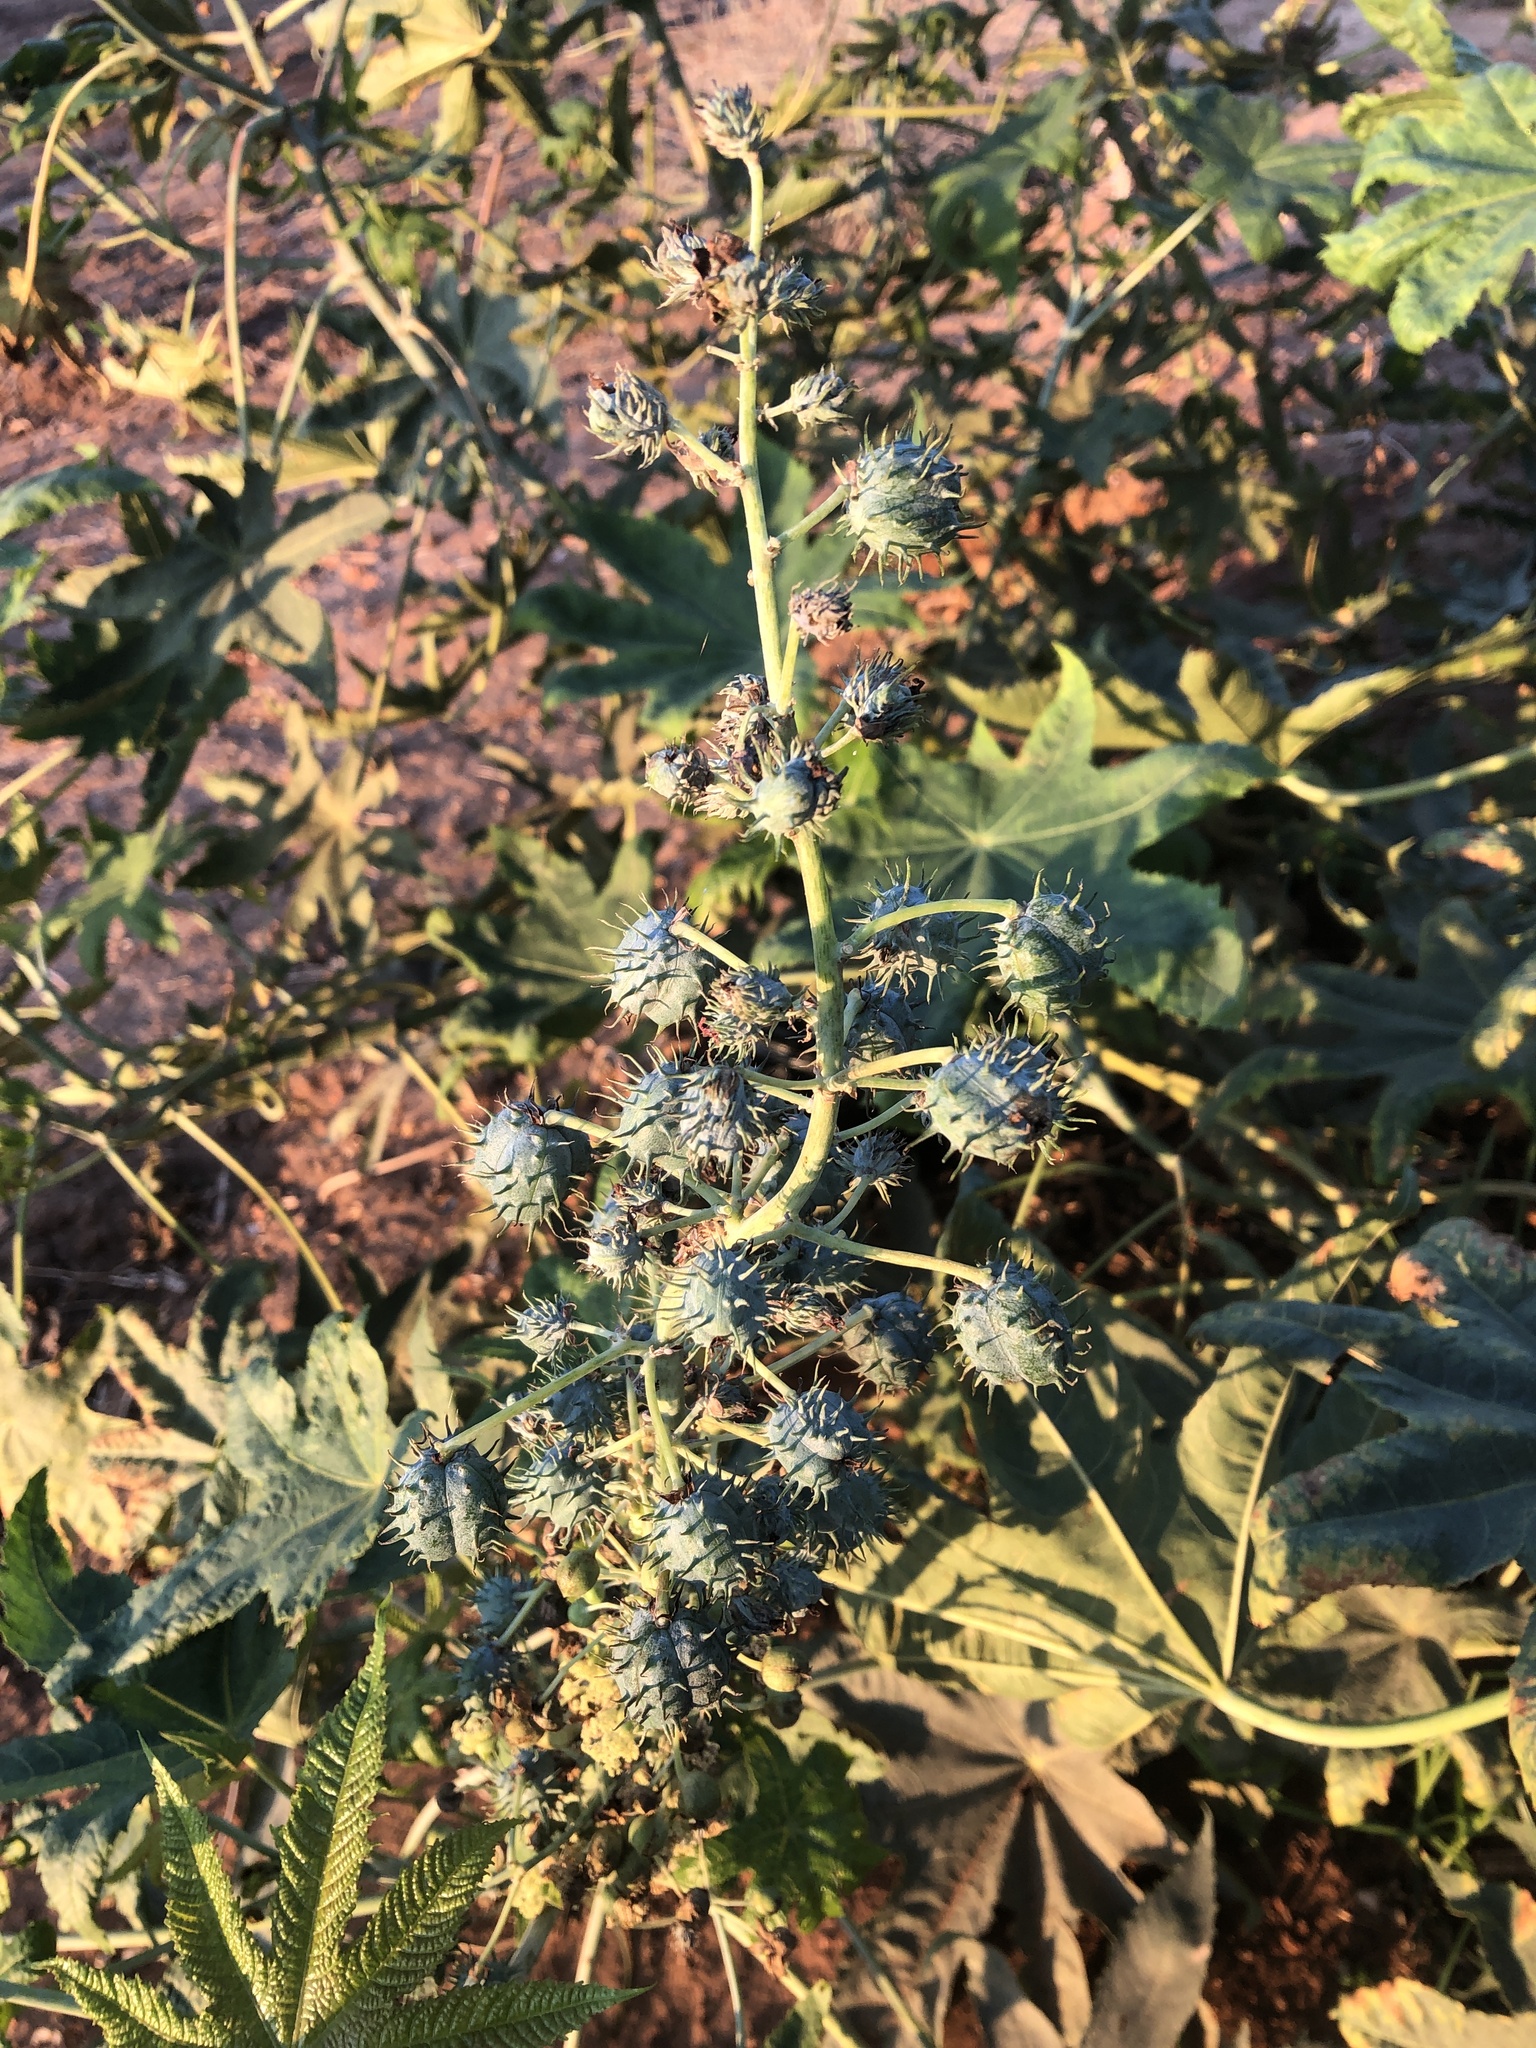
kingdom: Plantae
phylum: Tracheophyta
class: Magnoliopsida
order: Malpighiales
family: Euphorbiaceae
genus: Ricinus
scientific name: Ricinus communis
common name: Castor-oil-plant
